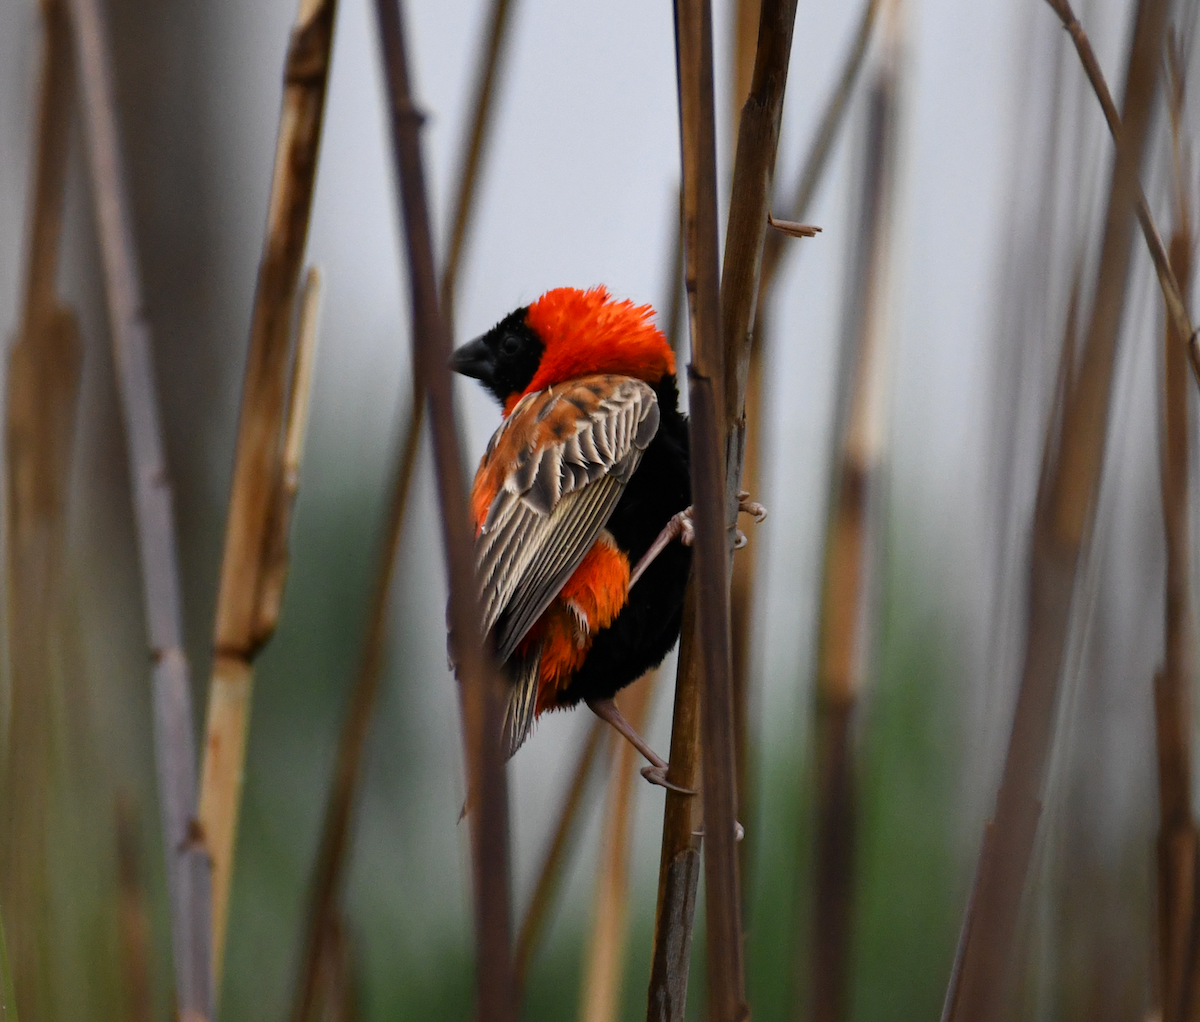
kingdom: Animalia
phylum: Chordata
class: Aves
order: Passeriformes
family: Ploceidae
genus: Euplectes
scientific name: Euplectes orix
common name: Southern red bishop
